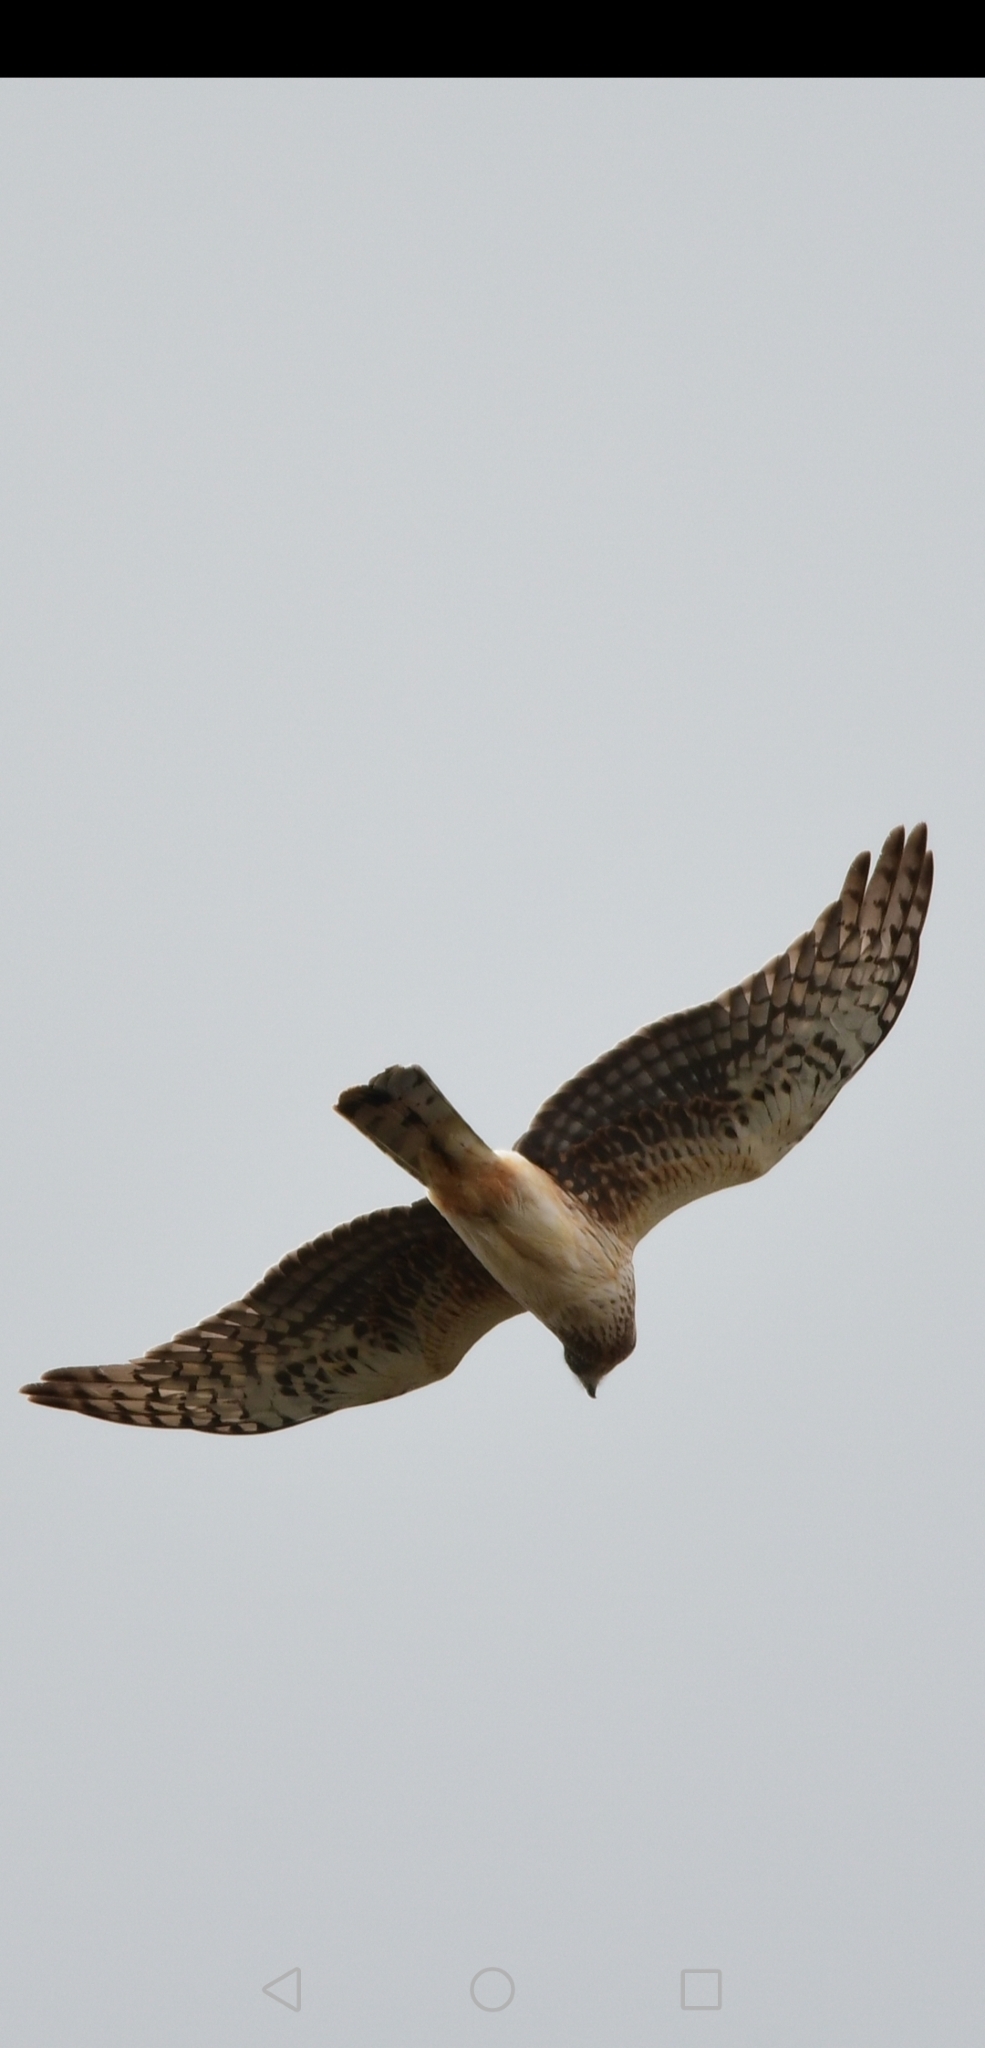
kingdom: Animalia
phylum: Chordata
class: Aves
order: Accipitriformes
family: Accipitridae
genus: Circus
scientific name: Circus cyaneus
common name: Hen harrier
